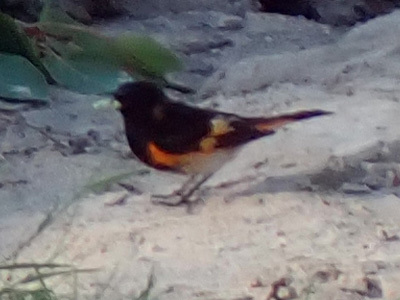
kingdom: Animalia
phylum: Chordata
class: Aves
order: Passeriformes
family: Parulidae
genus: Setophaga
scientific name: Setophaga ruticilla
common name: American redstart
